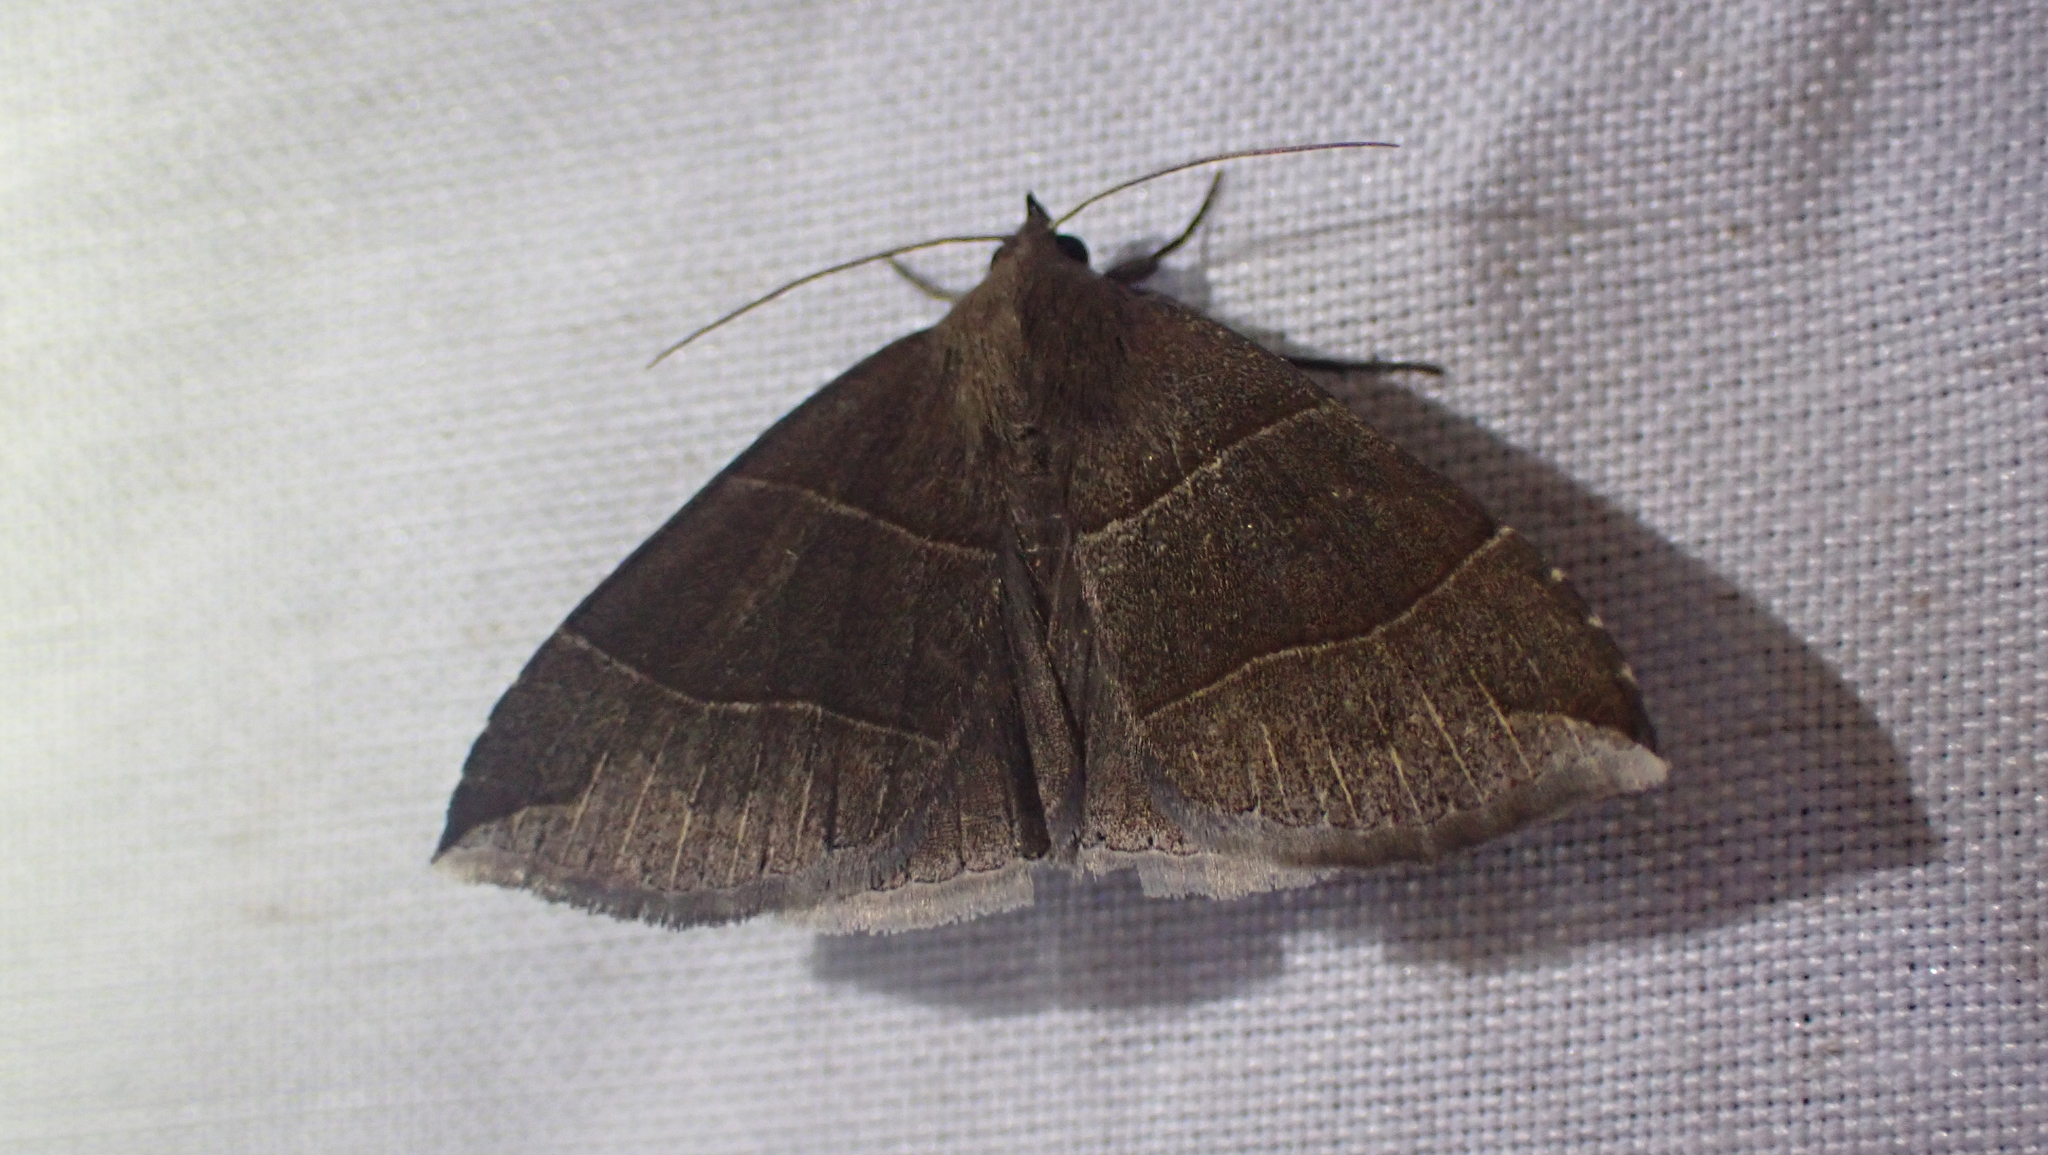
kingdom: Animalia
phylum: Arthropoda
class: Insecta
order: Lepidoptera
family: Erebidae
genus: Parallelia
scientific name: Parallelia bistriaris
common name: Maple looper moth
